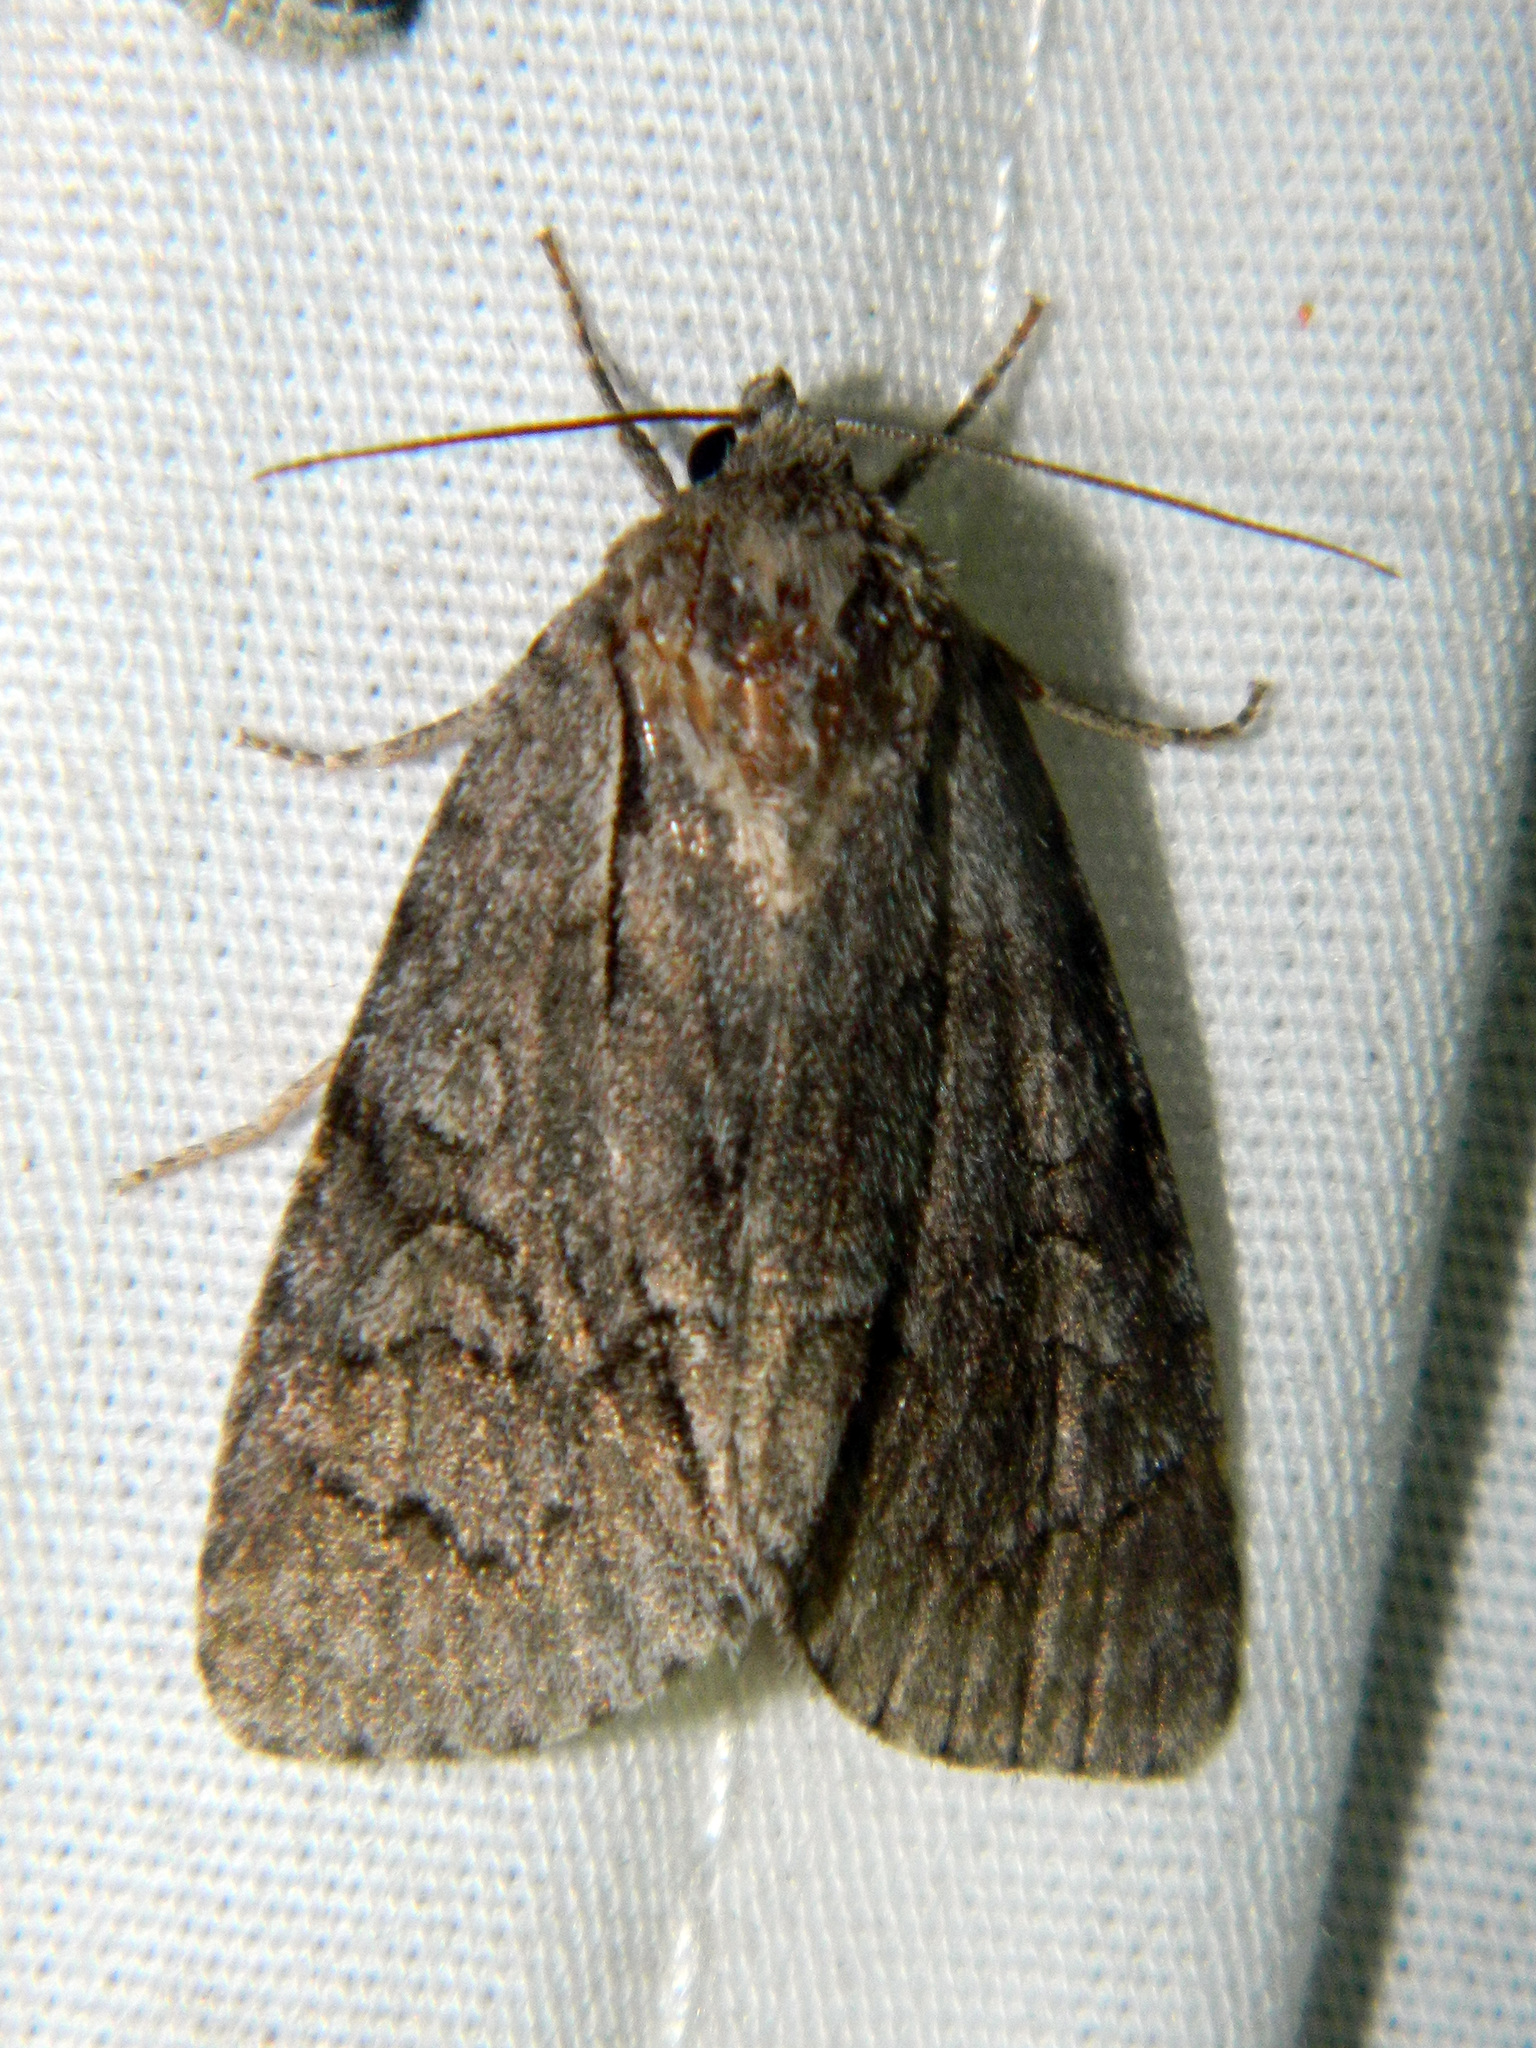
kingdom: Animalia
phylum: Arthropoda
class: Insecta
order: Lepidoptera
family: Noctuidae
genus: Acronicta
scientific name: Acronicta grisea
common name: Gray dagger
